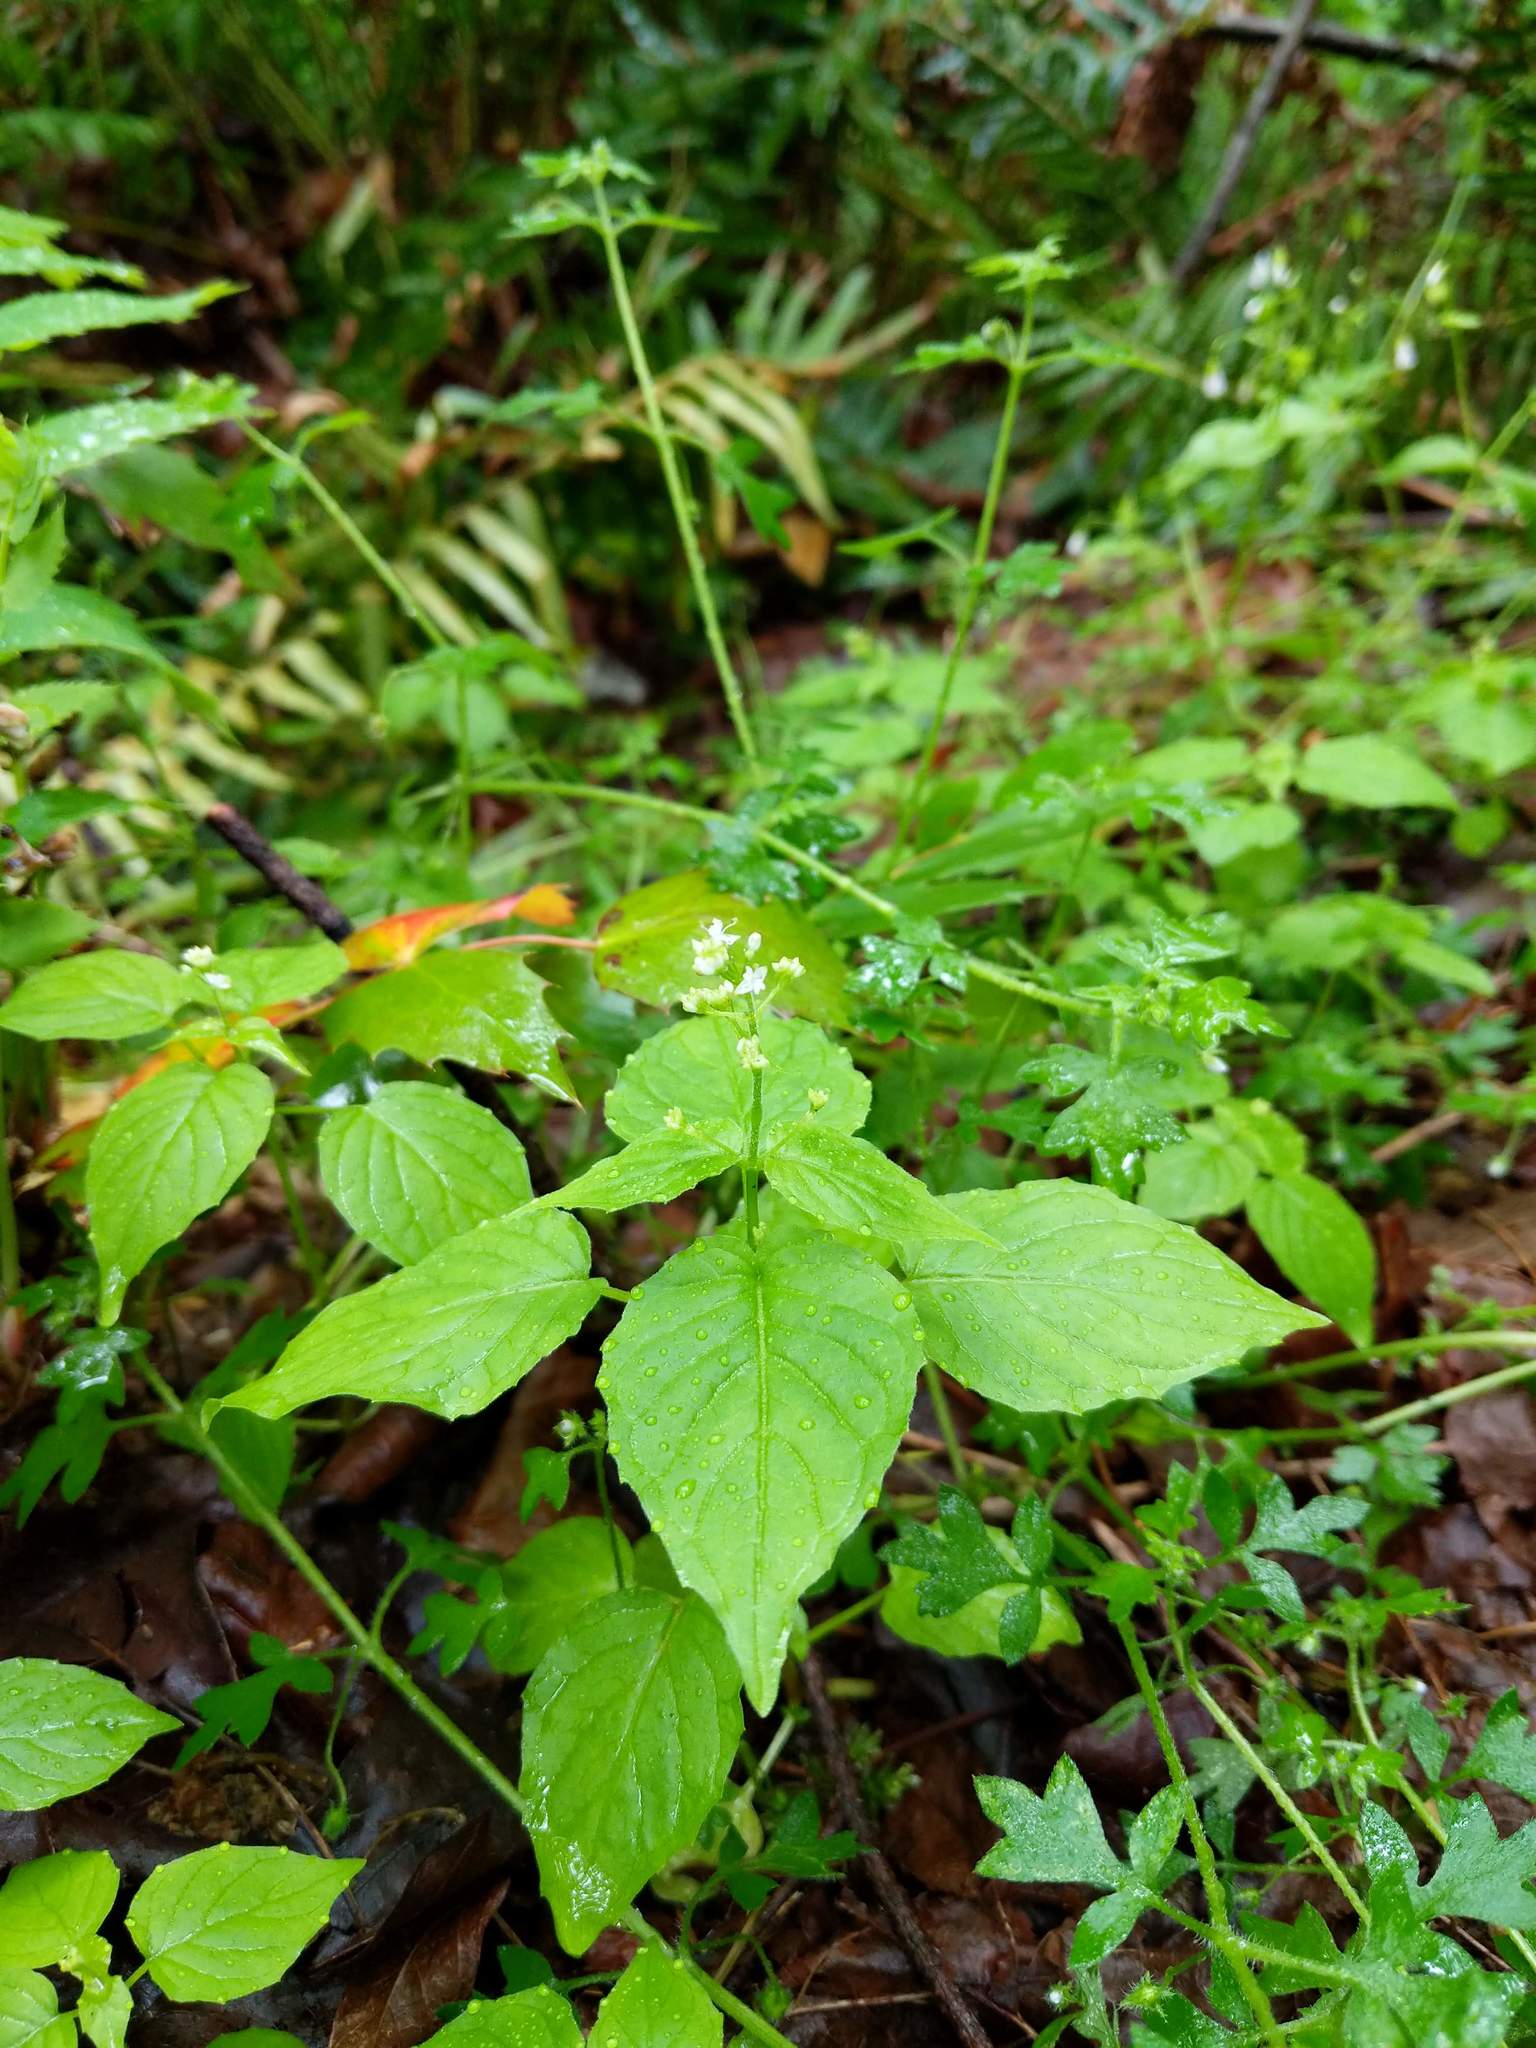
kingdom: Plantae
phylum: Tracheophyta
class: Magnoliopsida
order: Myrtales
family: Onagraceae
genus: Circaea
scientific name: Circaea alpina
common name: Alpine enchanter's-nightshade
